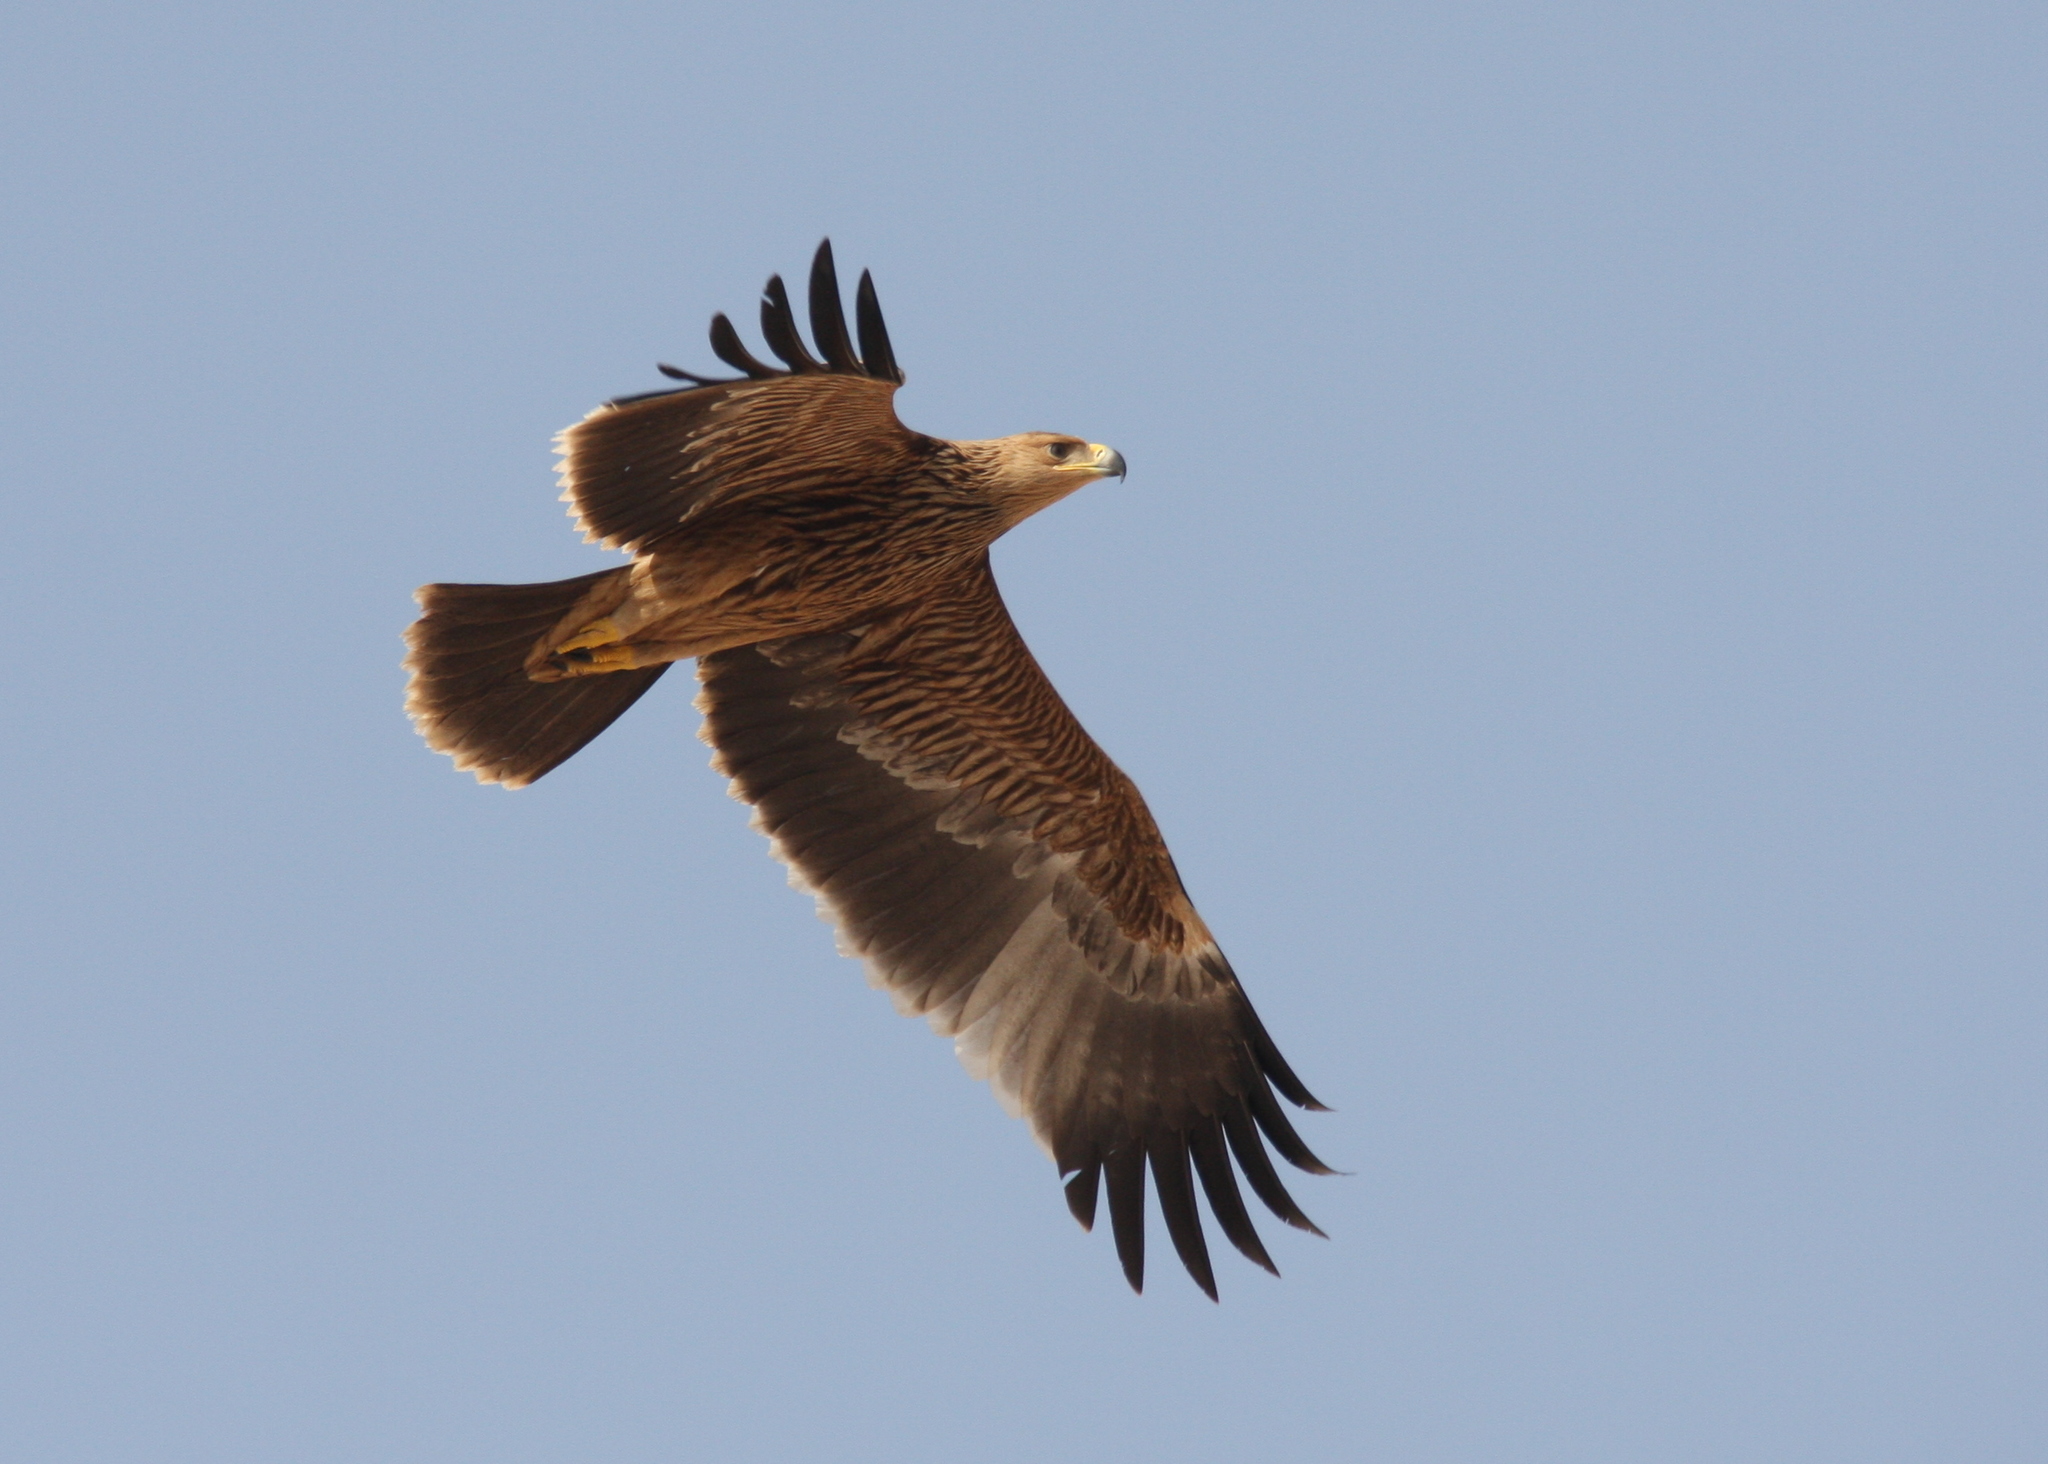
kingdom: Animalia
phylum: Chordata
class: Aves
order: Accipitriformes
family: Accipitridae
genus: Aquila
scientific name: Aquila heliaca
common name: Eastern imperial eagle
